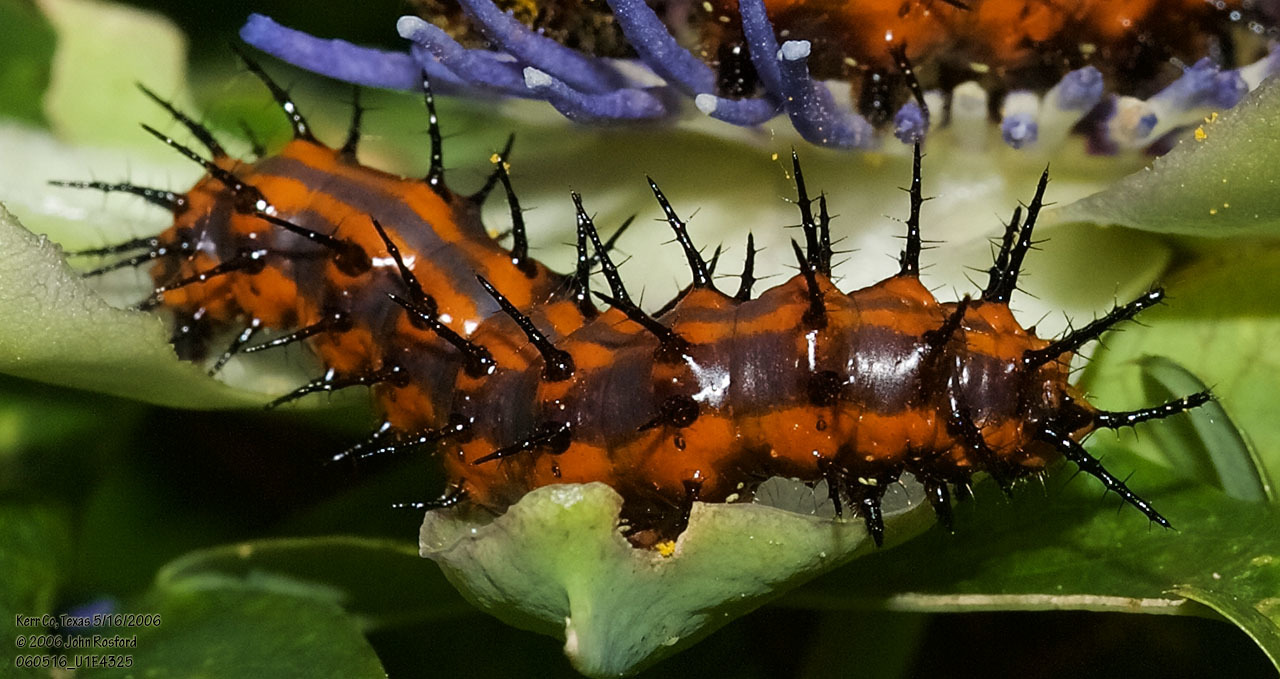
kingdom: Animalia
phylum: Arthropoda
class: Insecta
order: Lepidoptera
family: Nymphalidae
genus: Dione
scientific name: Dione vanillae
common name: Gulf fritillary
